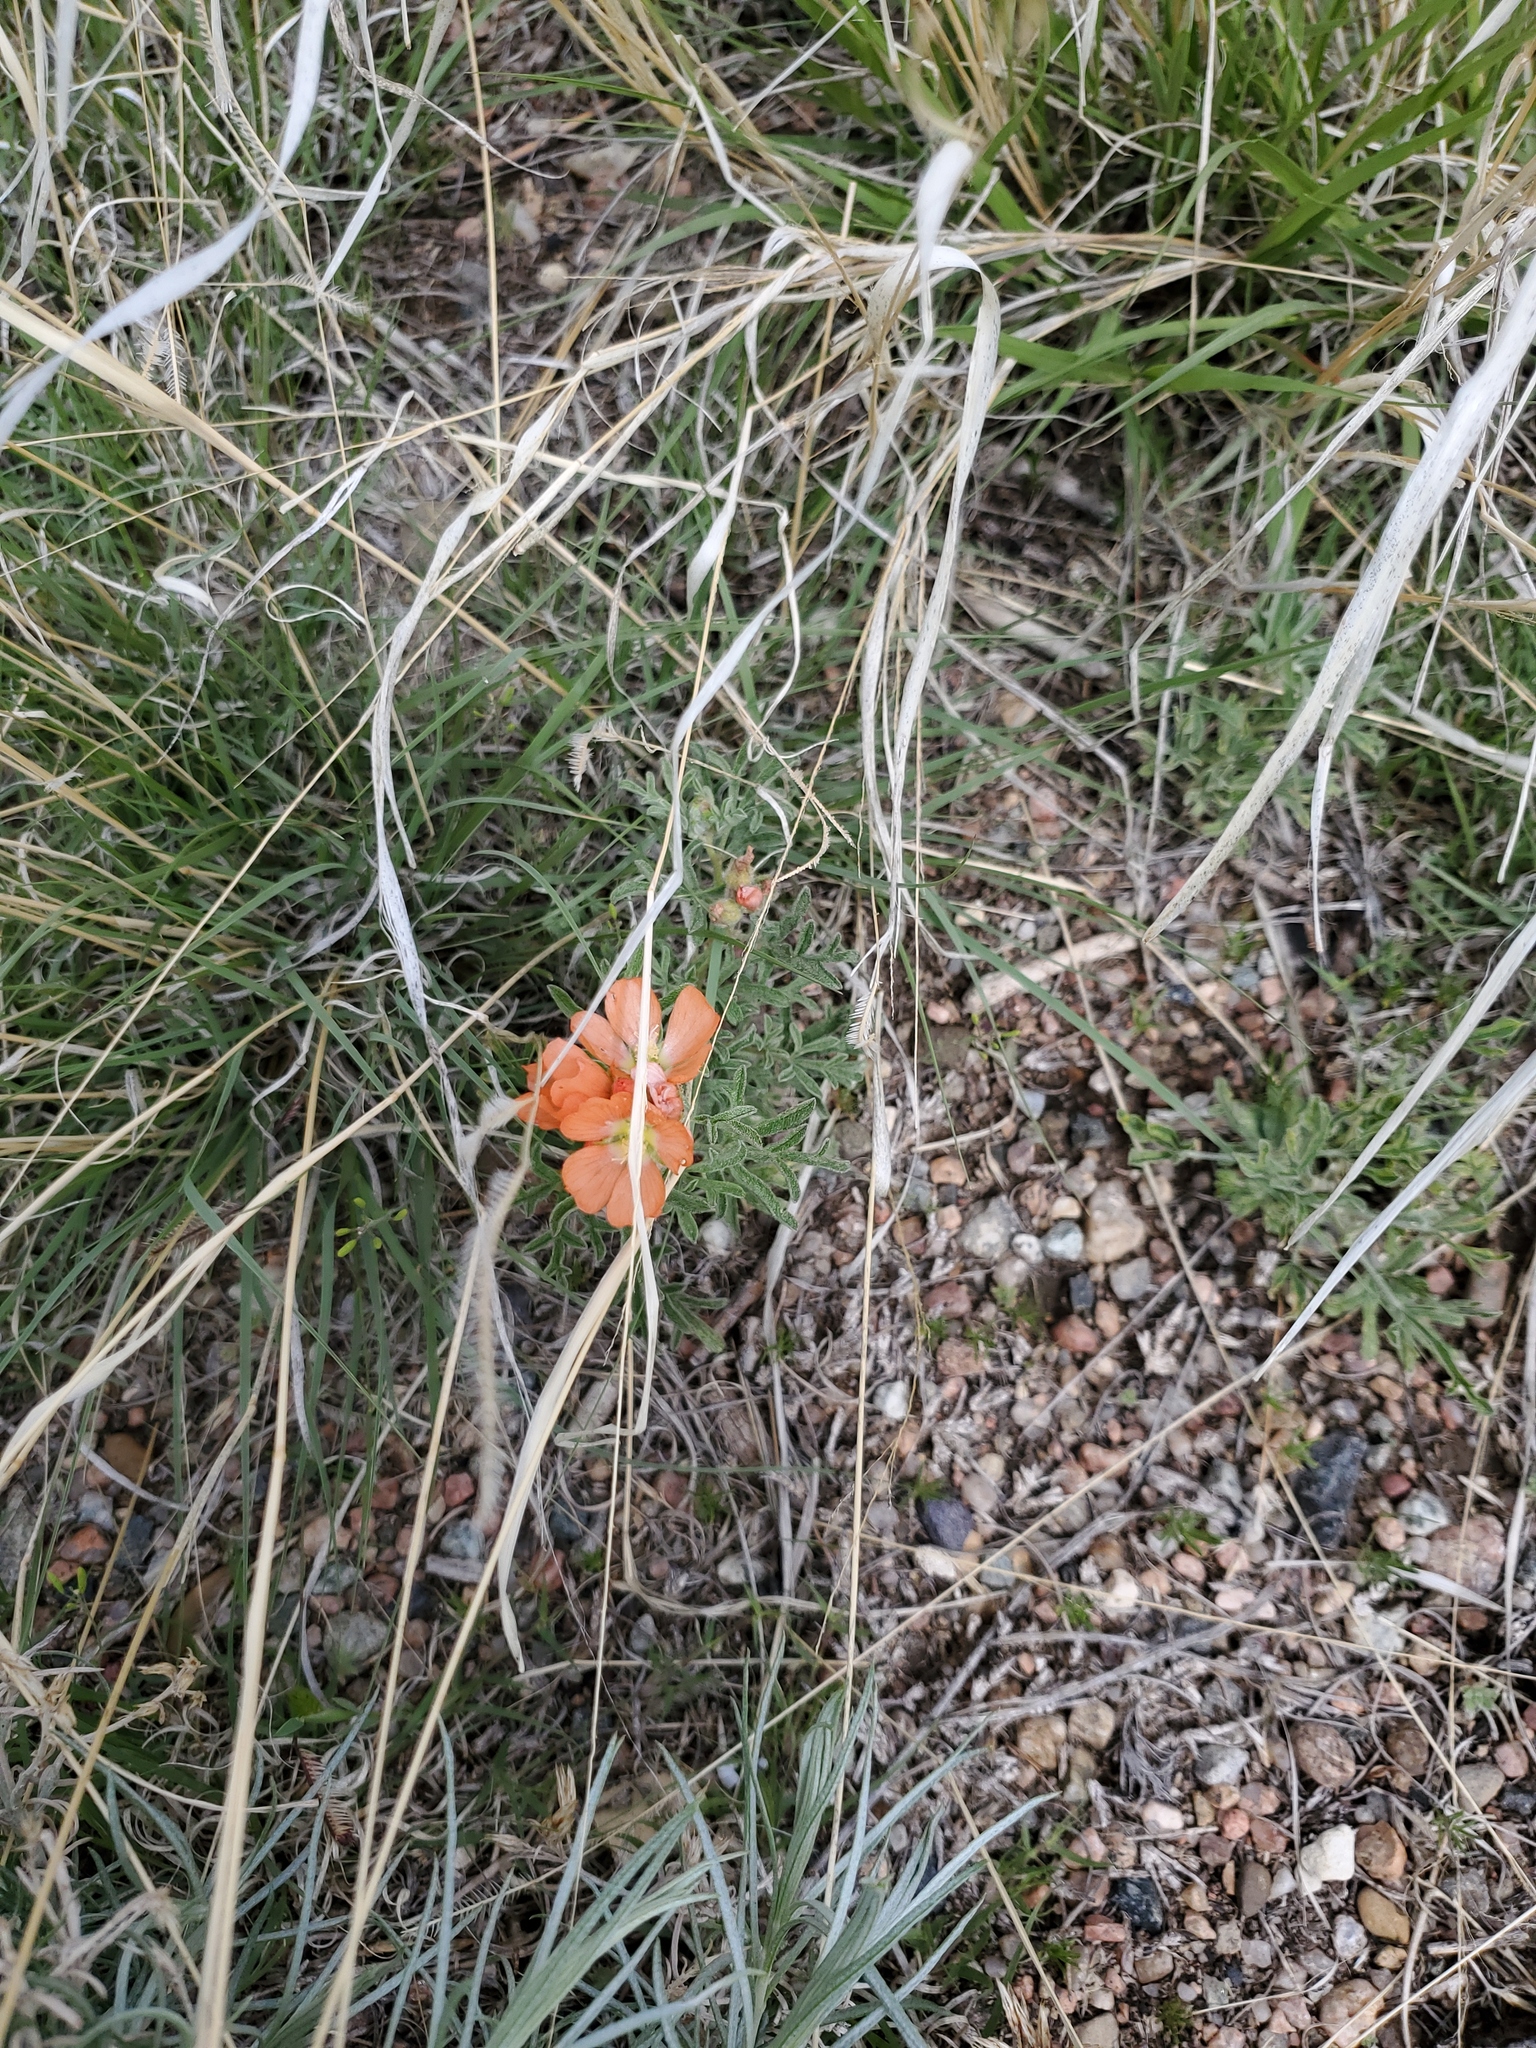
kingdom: Plantae
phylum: Tracheophyta
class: Magnoliopsida
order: Malvales
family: Malvaceae
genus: Sphaeralcea
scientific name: Sphaeralcea coccinea
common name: Moss-rose
